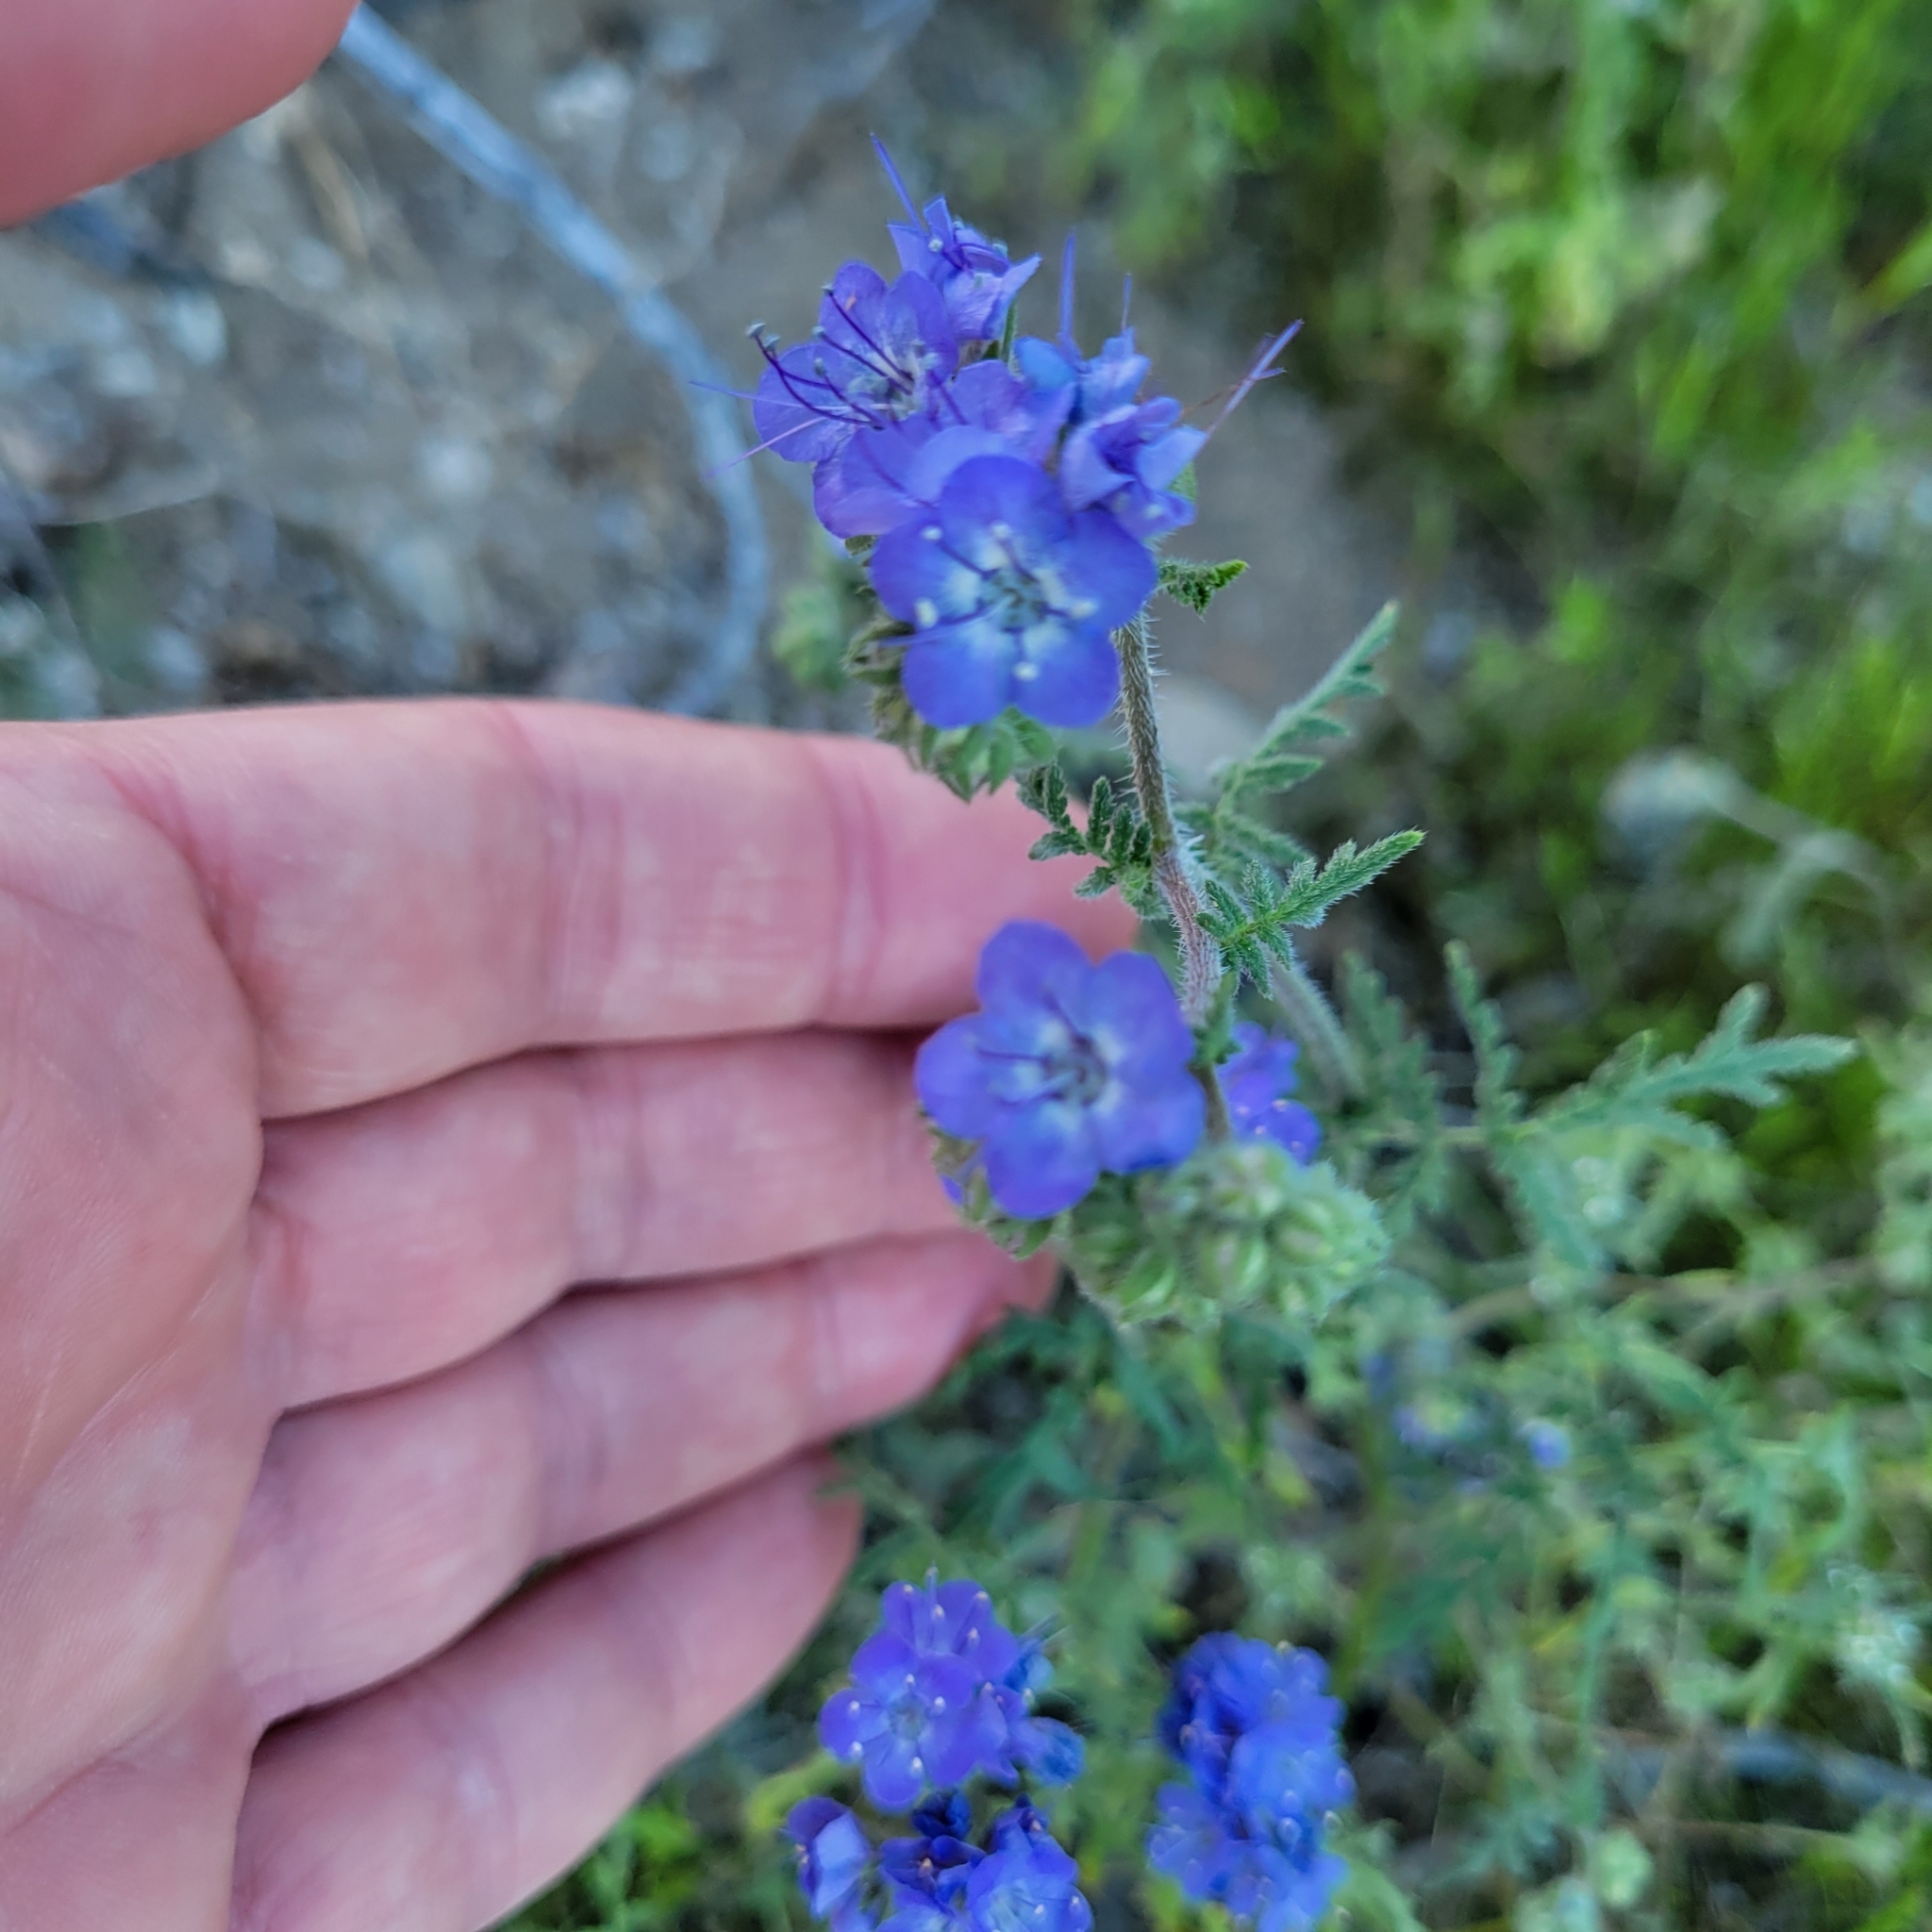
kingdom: Plantae
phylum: Tracheophyta
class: Magnoliopsida
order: Boraginales
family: Hydrophyllaceae
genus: Phacelia
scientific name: Phacelia distans
